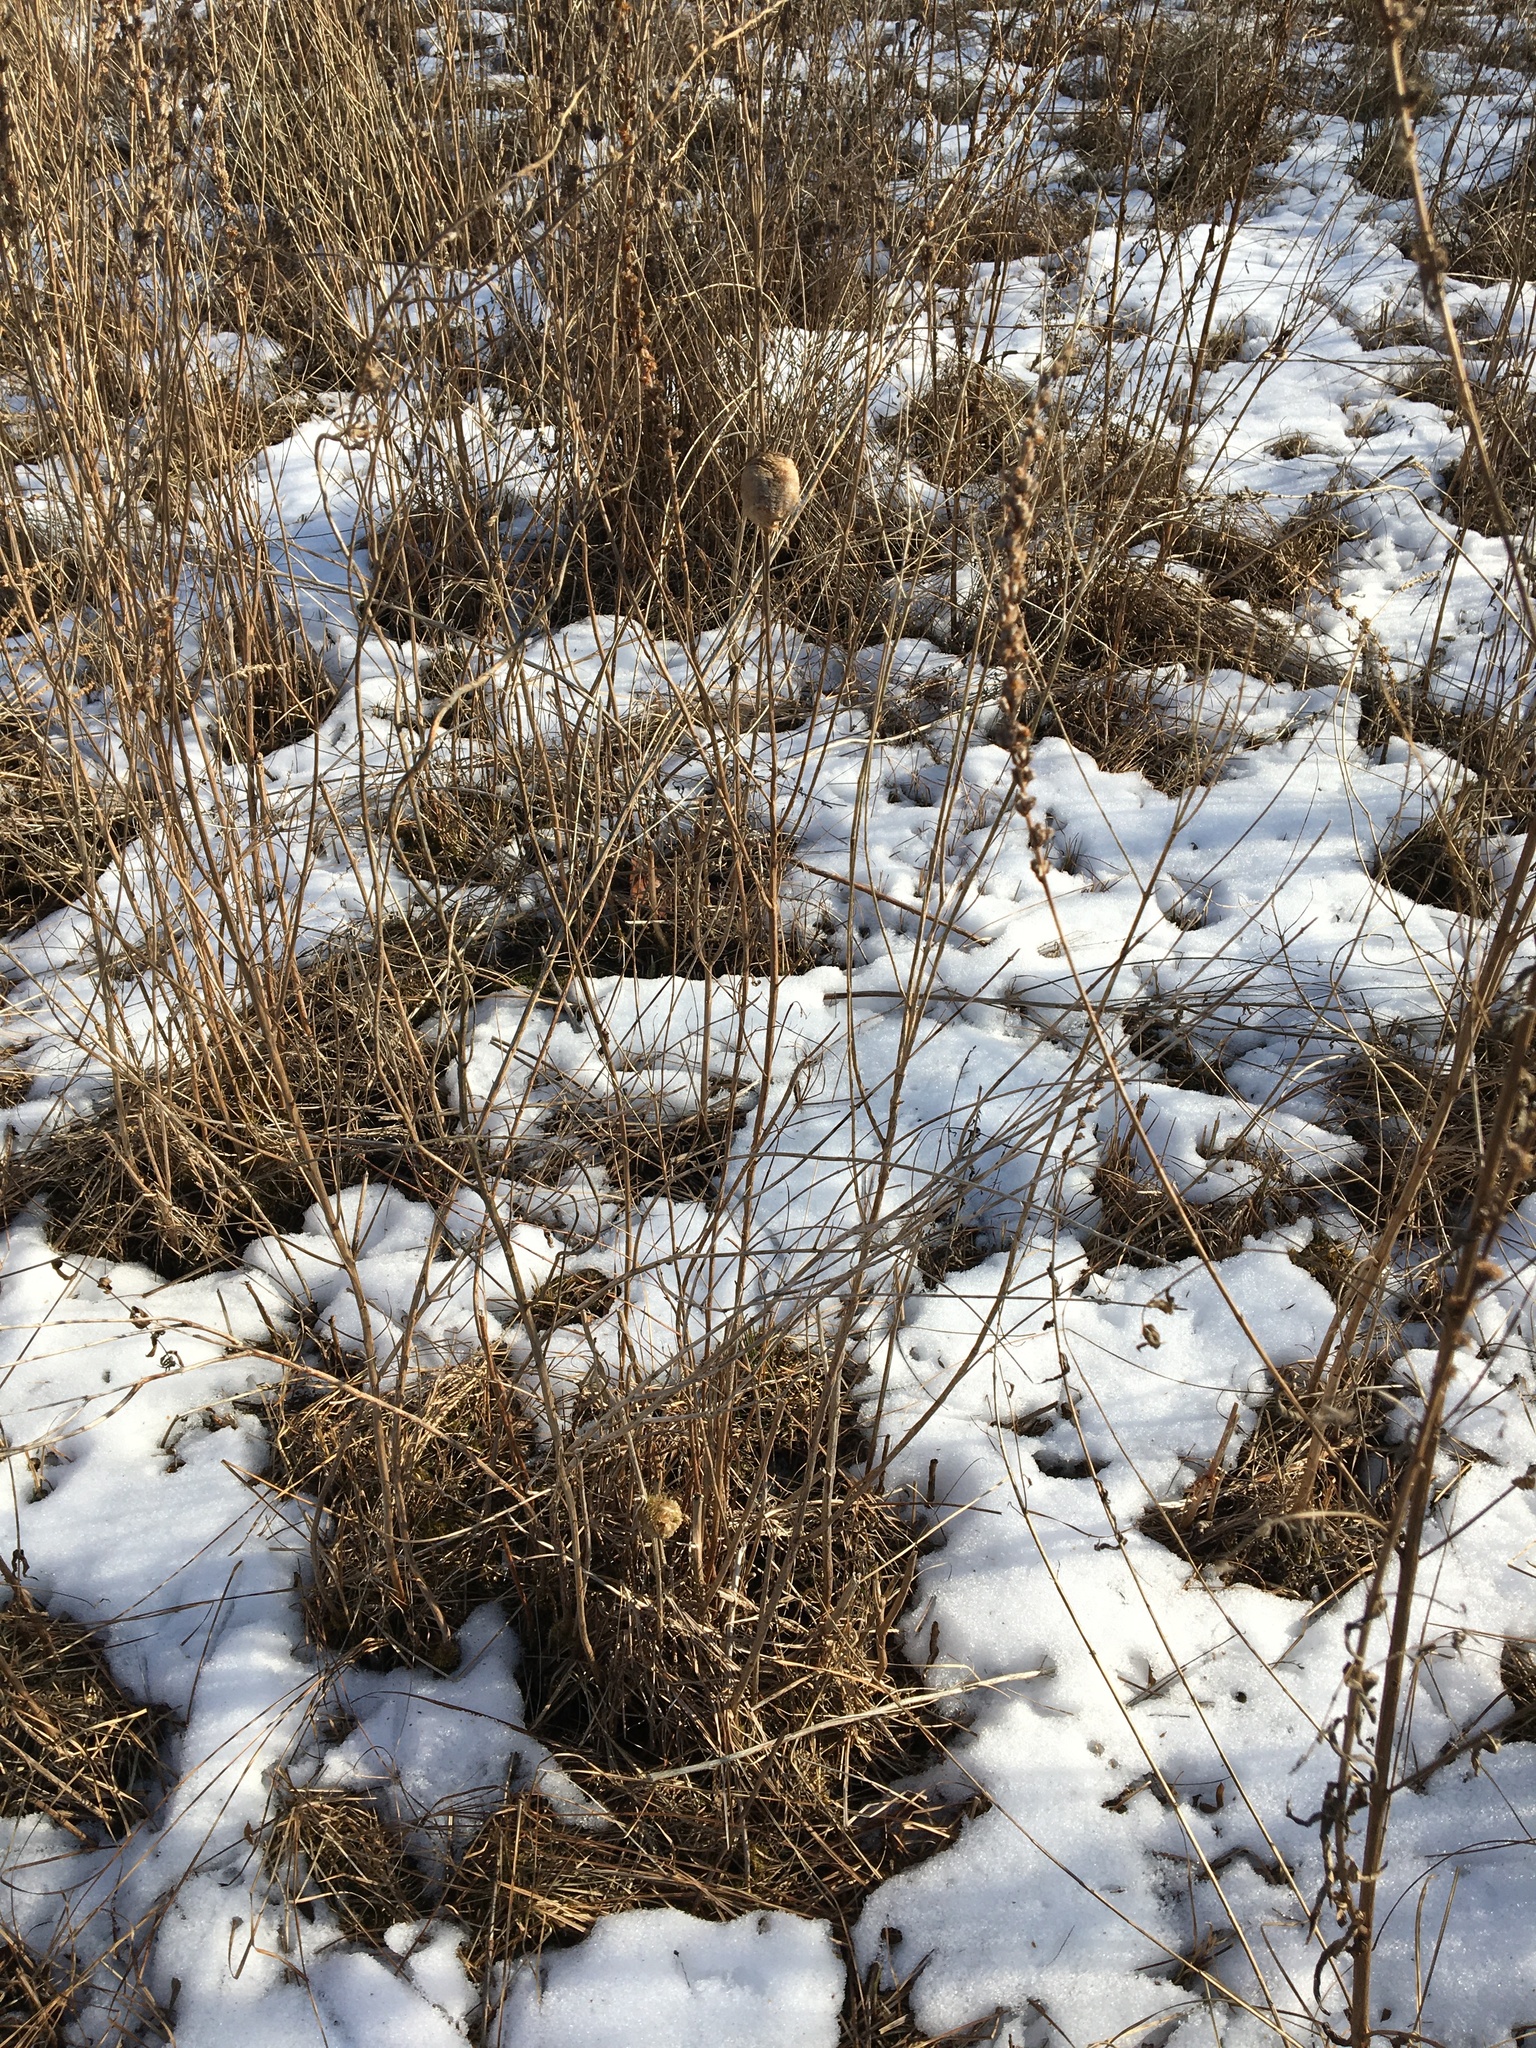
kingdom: Animalia
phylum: Arthropoda
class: Insecta
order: Mantodea
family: Mantidae
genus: Tenodera
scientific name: Tenodera sinensis
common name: Chinese mantis
